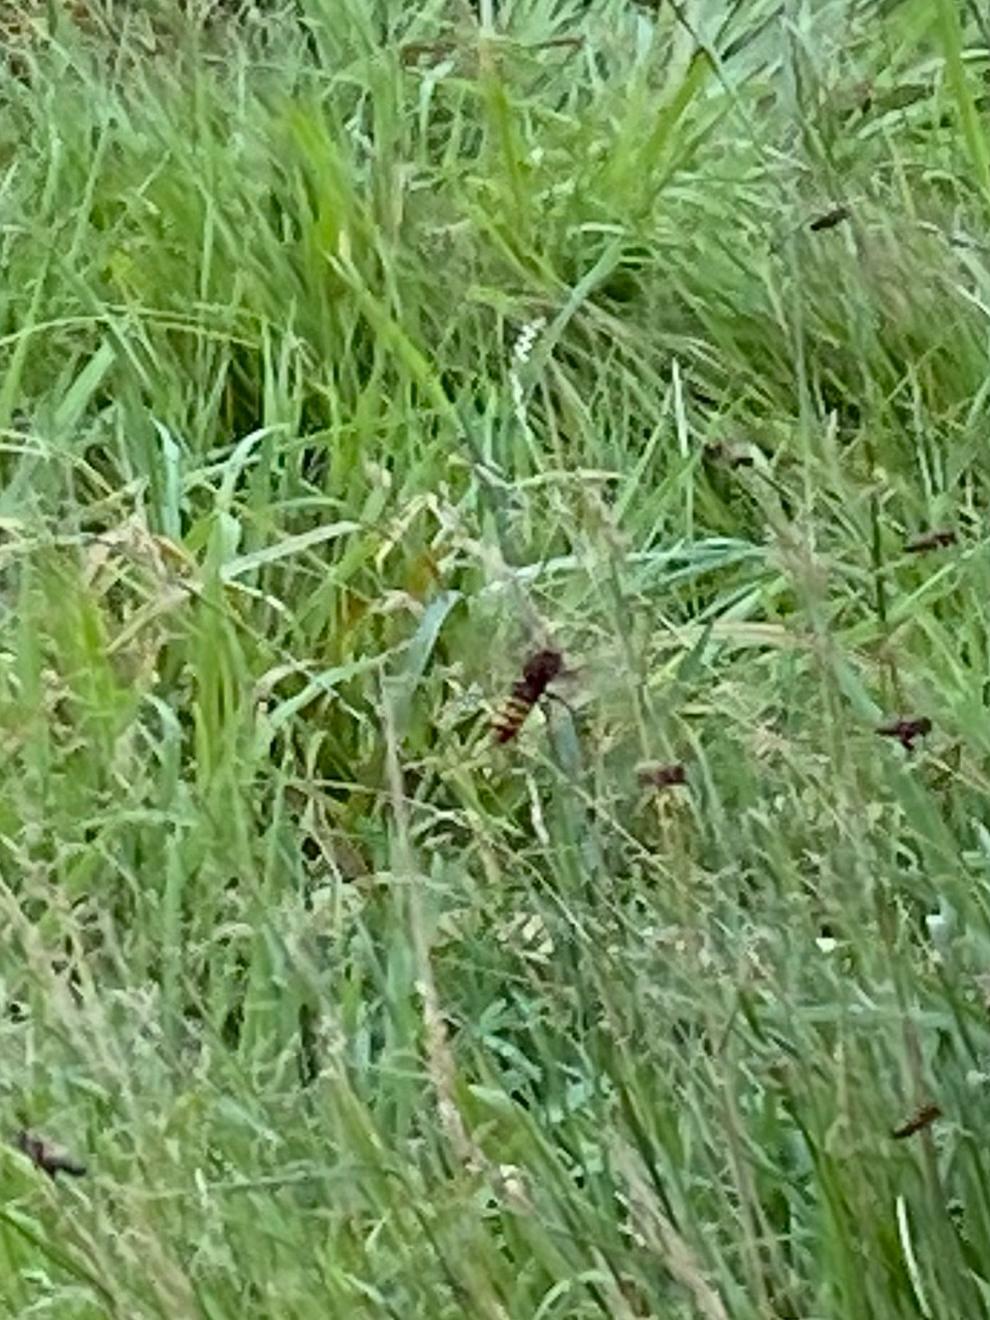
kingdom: Animalia
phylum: Arthropoda
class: Insecta
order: Hymenoptera
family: Vespidae
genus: Vespa
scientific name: Vespa crabro
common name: Hornet
